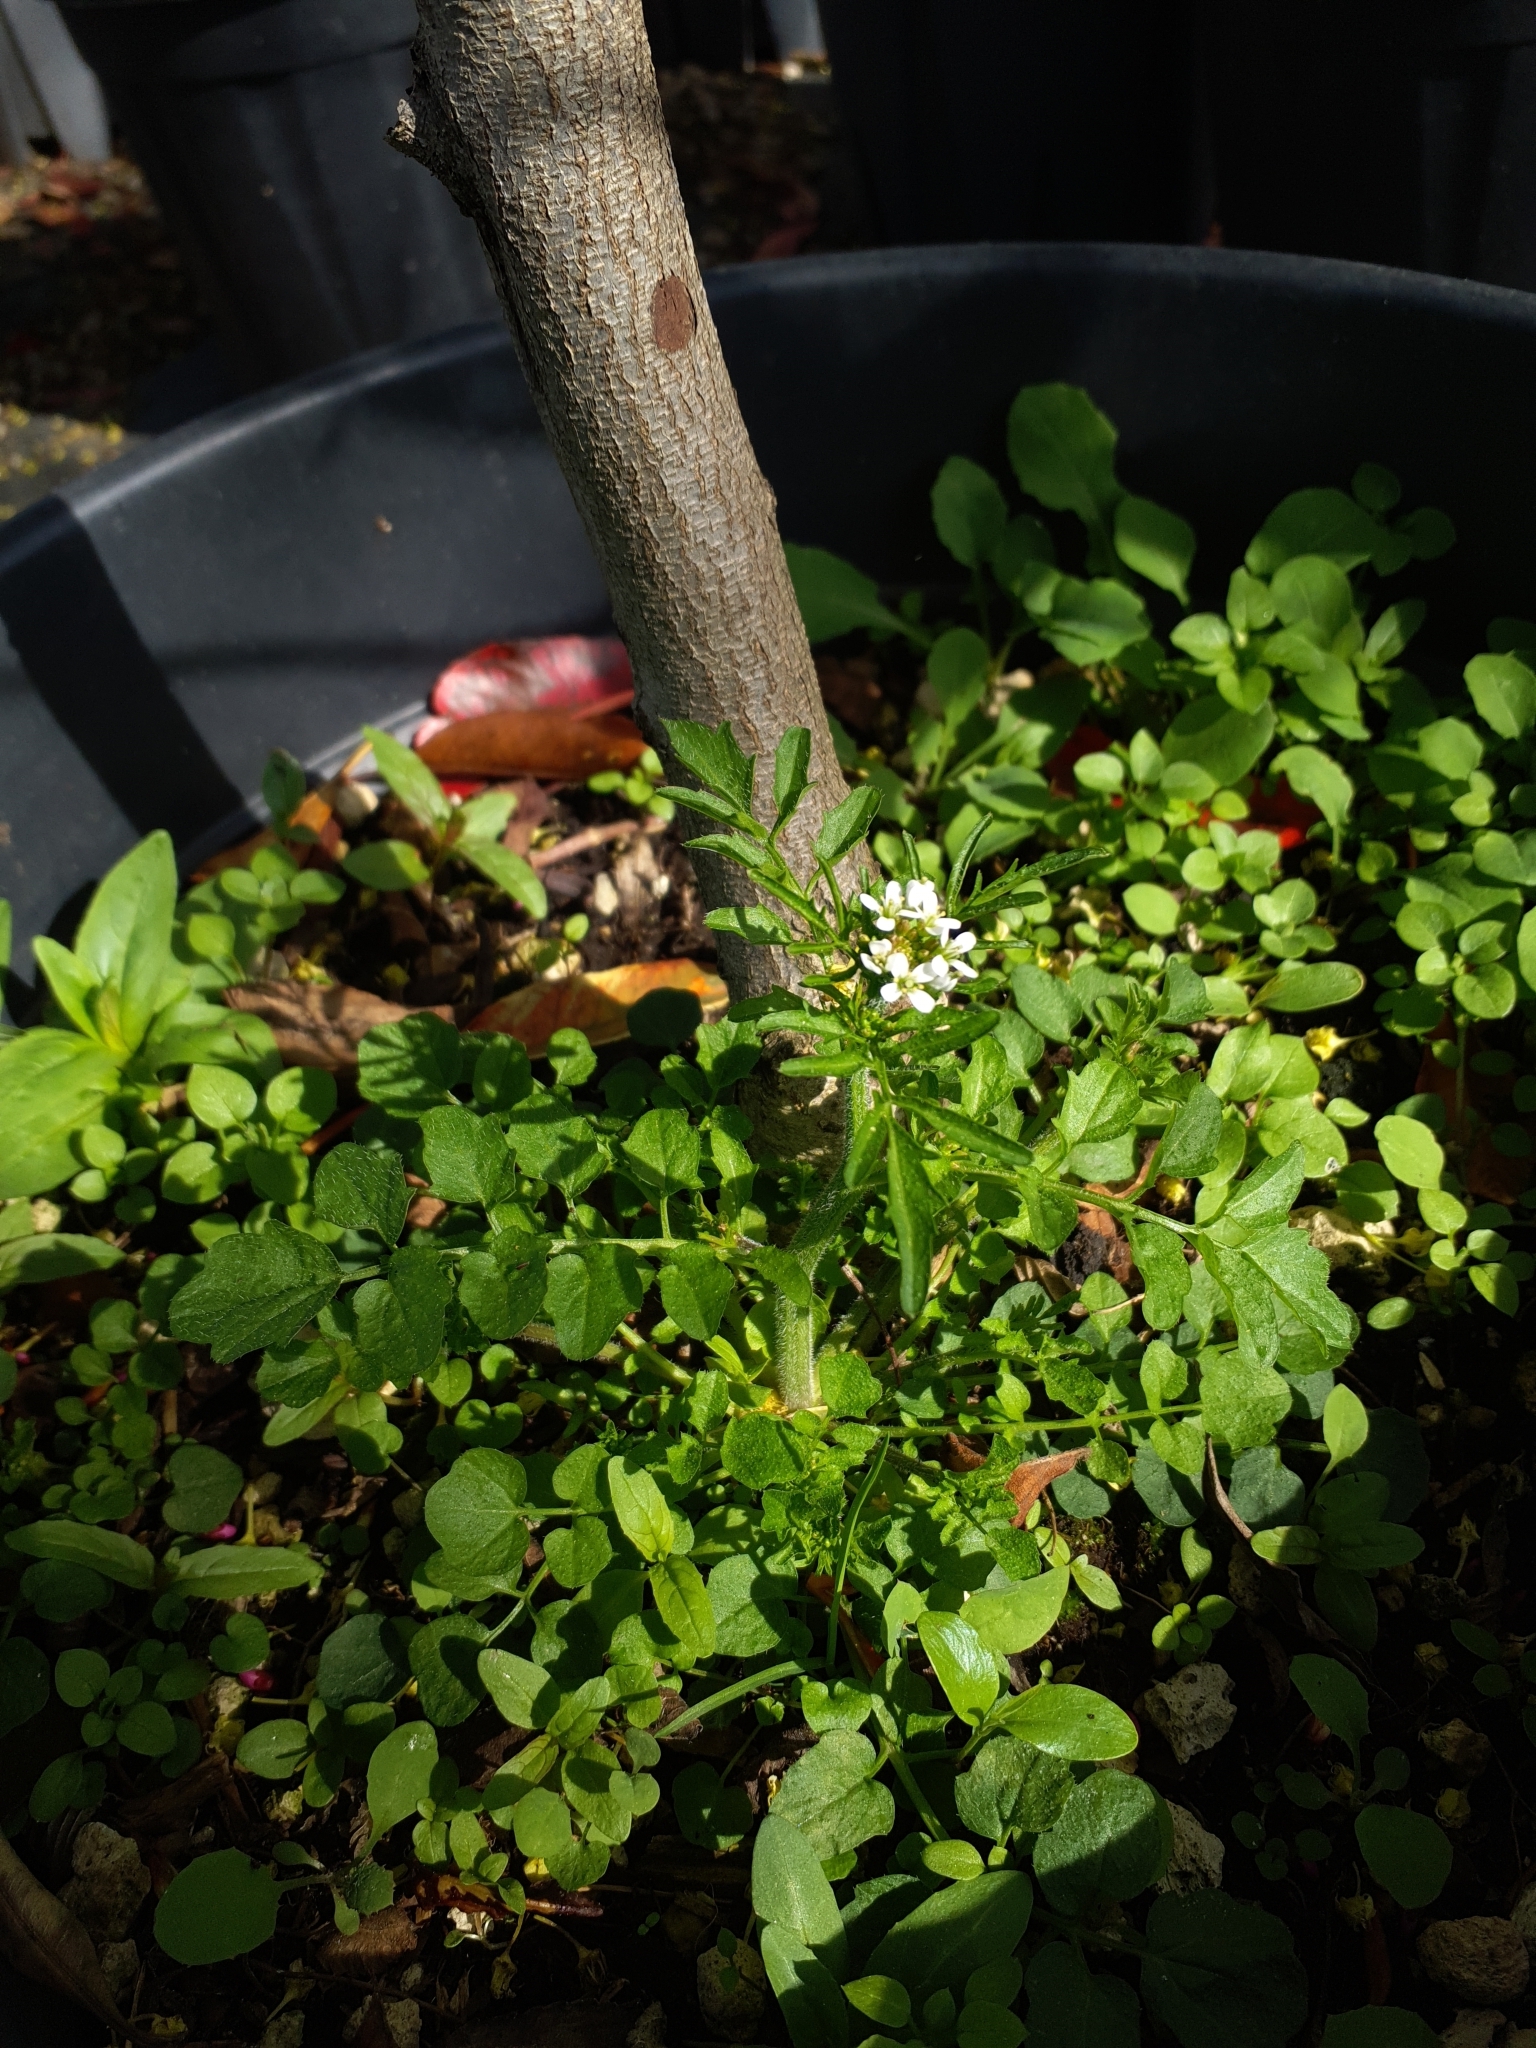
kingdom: Plantae
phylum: Tracheophyta
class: Magnoliopsida
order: Brassicales
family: Brassicaceae
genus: Cardamine
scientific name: Cardamine flexuosa
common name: Woodland bittercress
